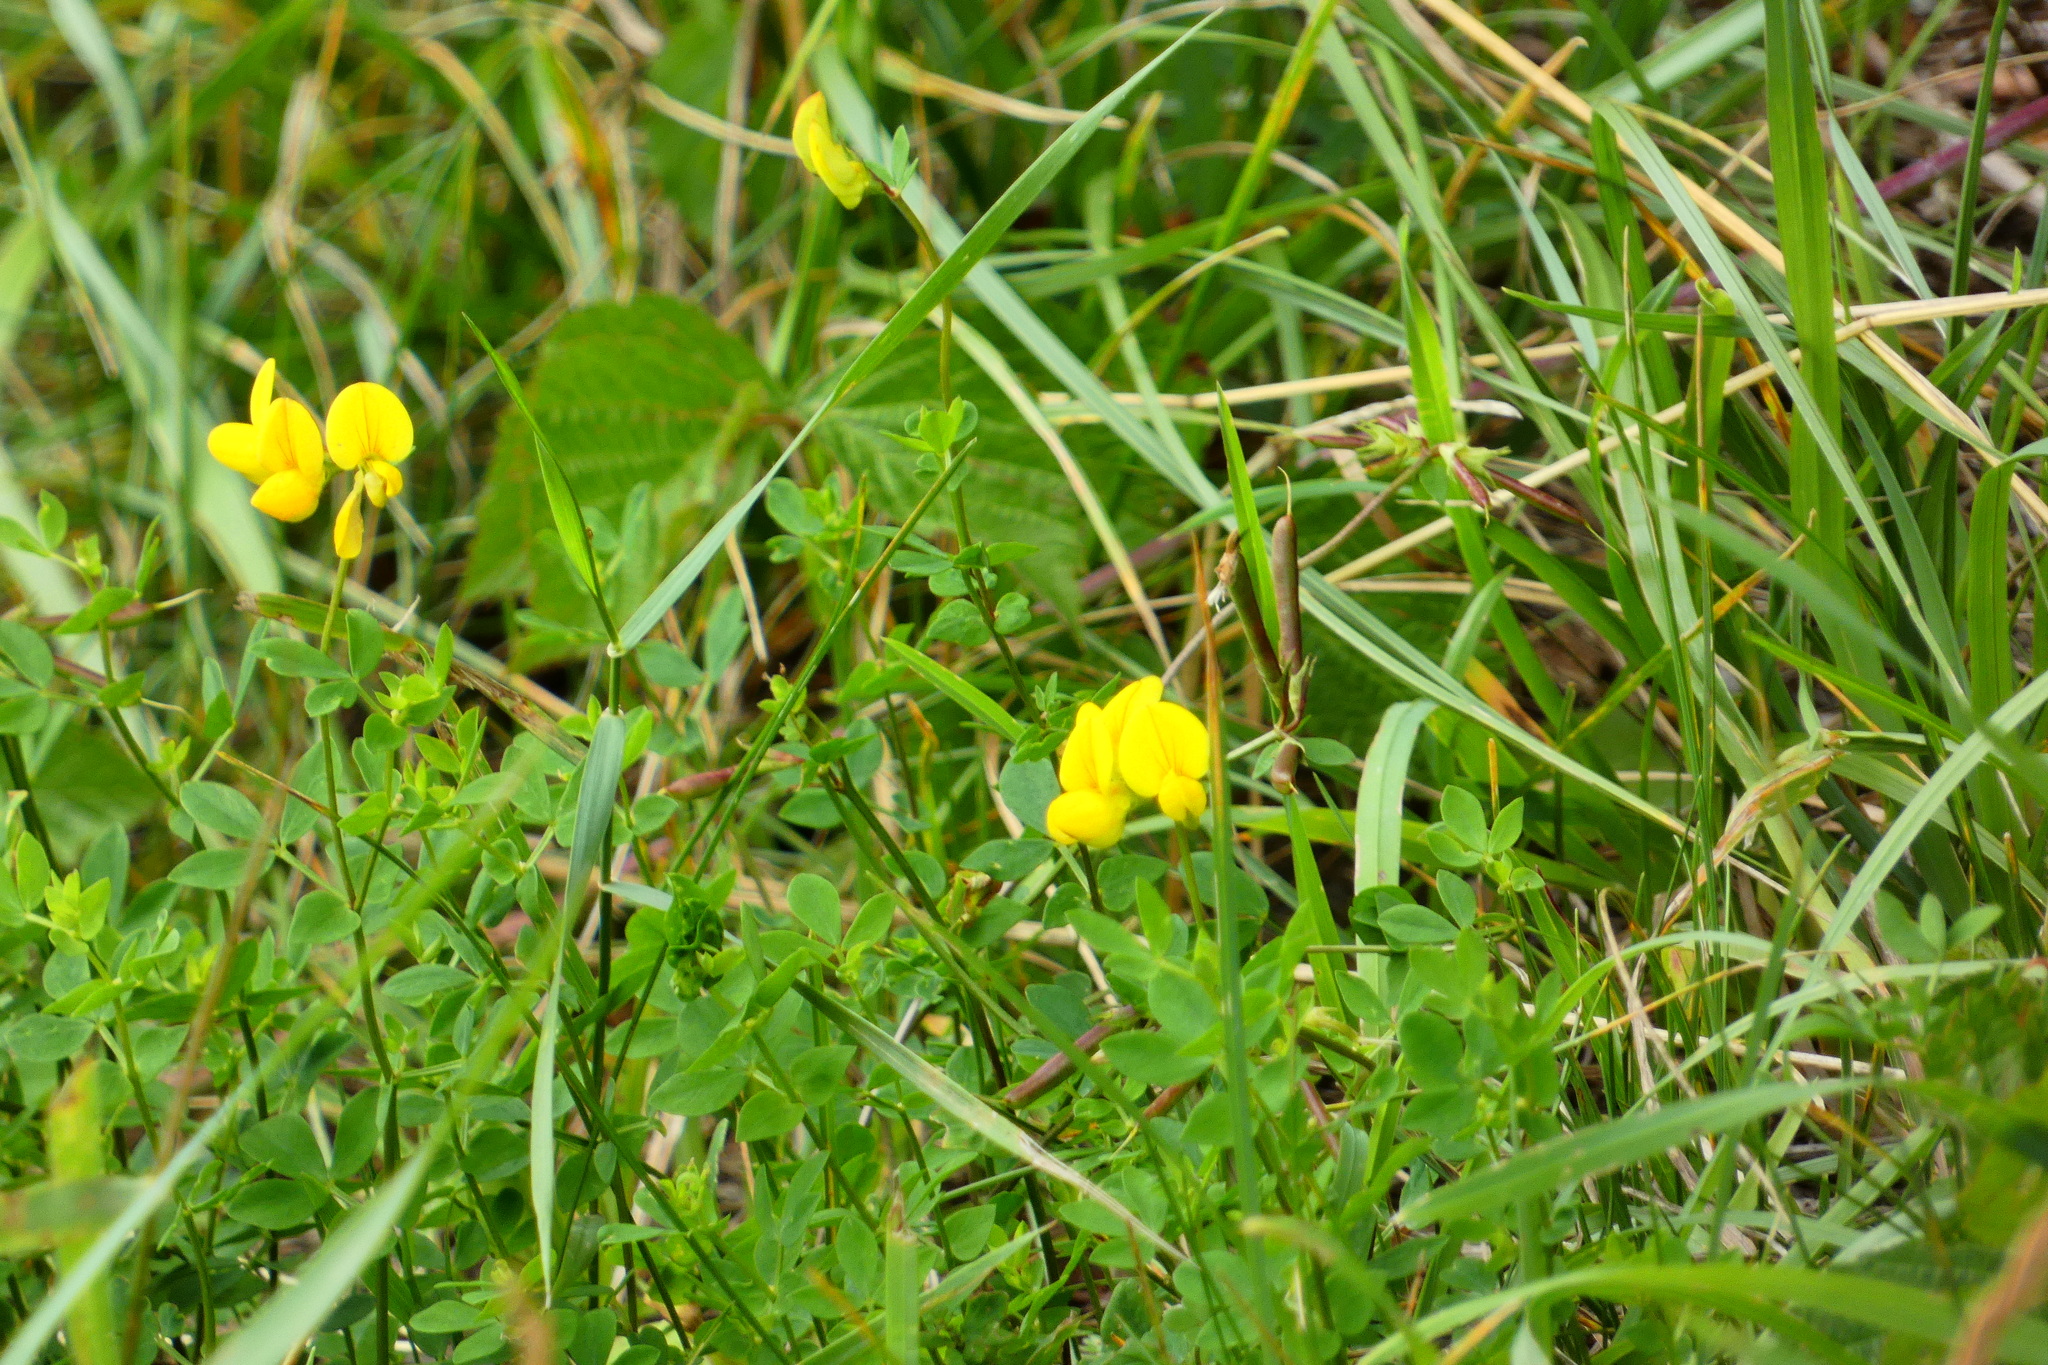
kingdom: Plantae
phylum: Tracheophyta
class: Magnoliopsida
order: Fabales
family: Fabaceae
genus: Lotus
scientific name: Lotus corniculatus
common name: Common bird's-foot-trefoil
